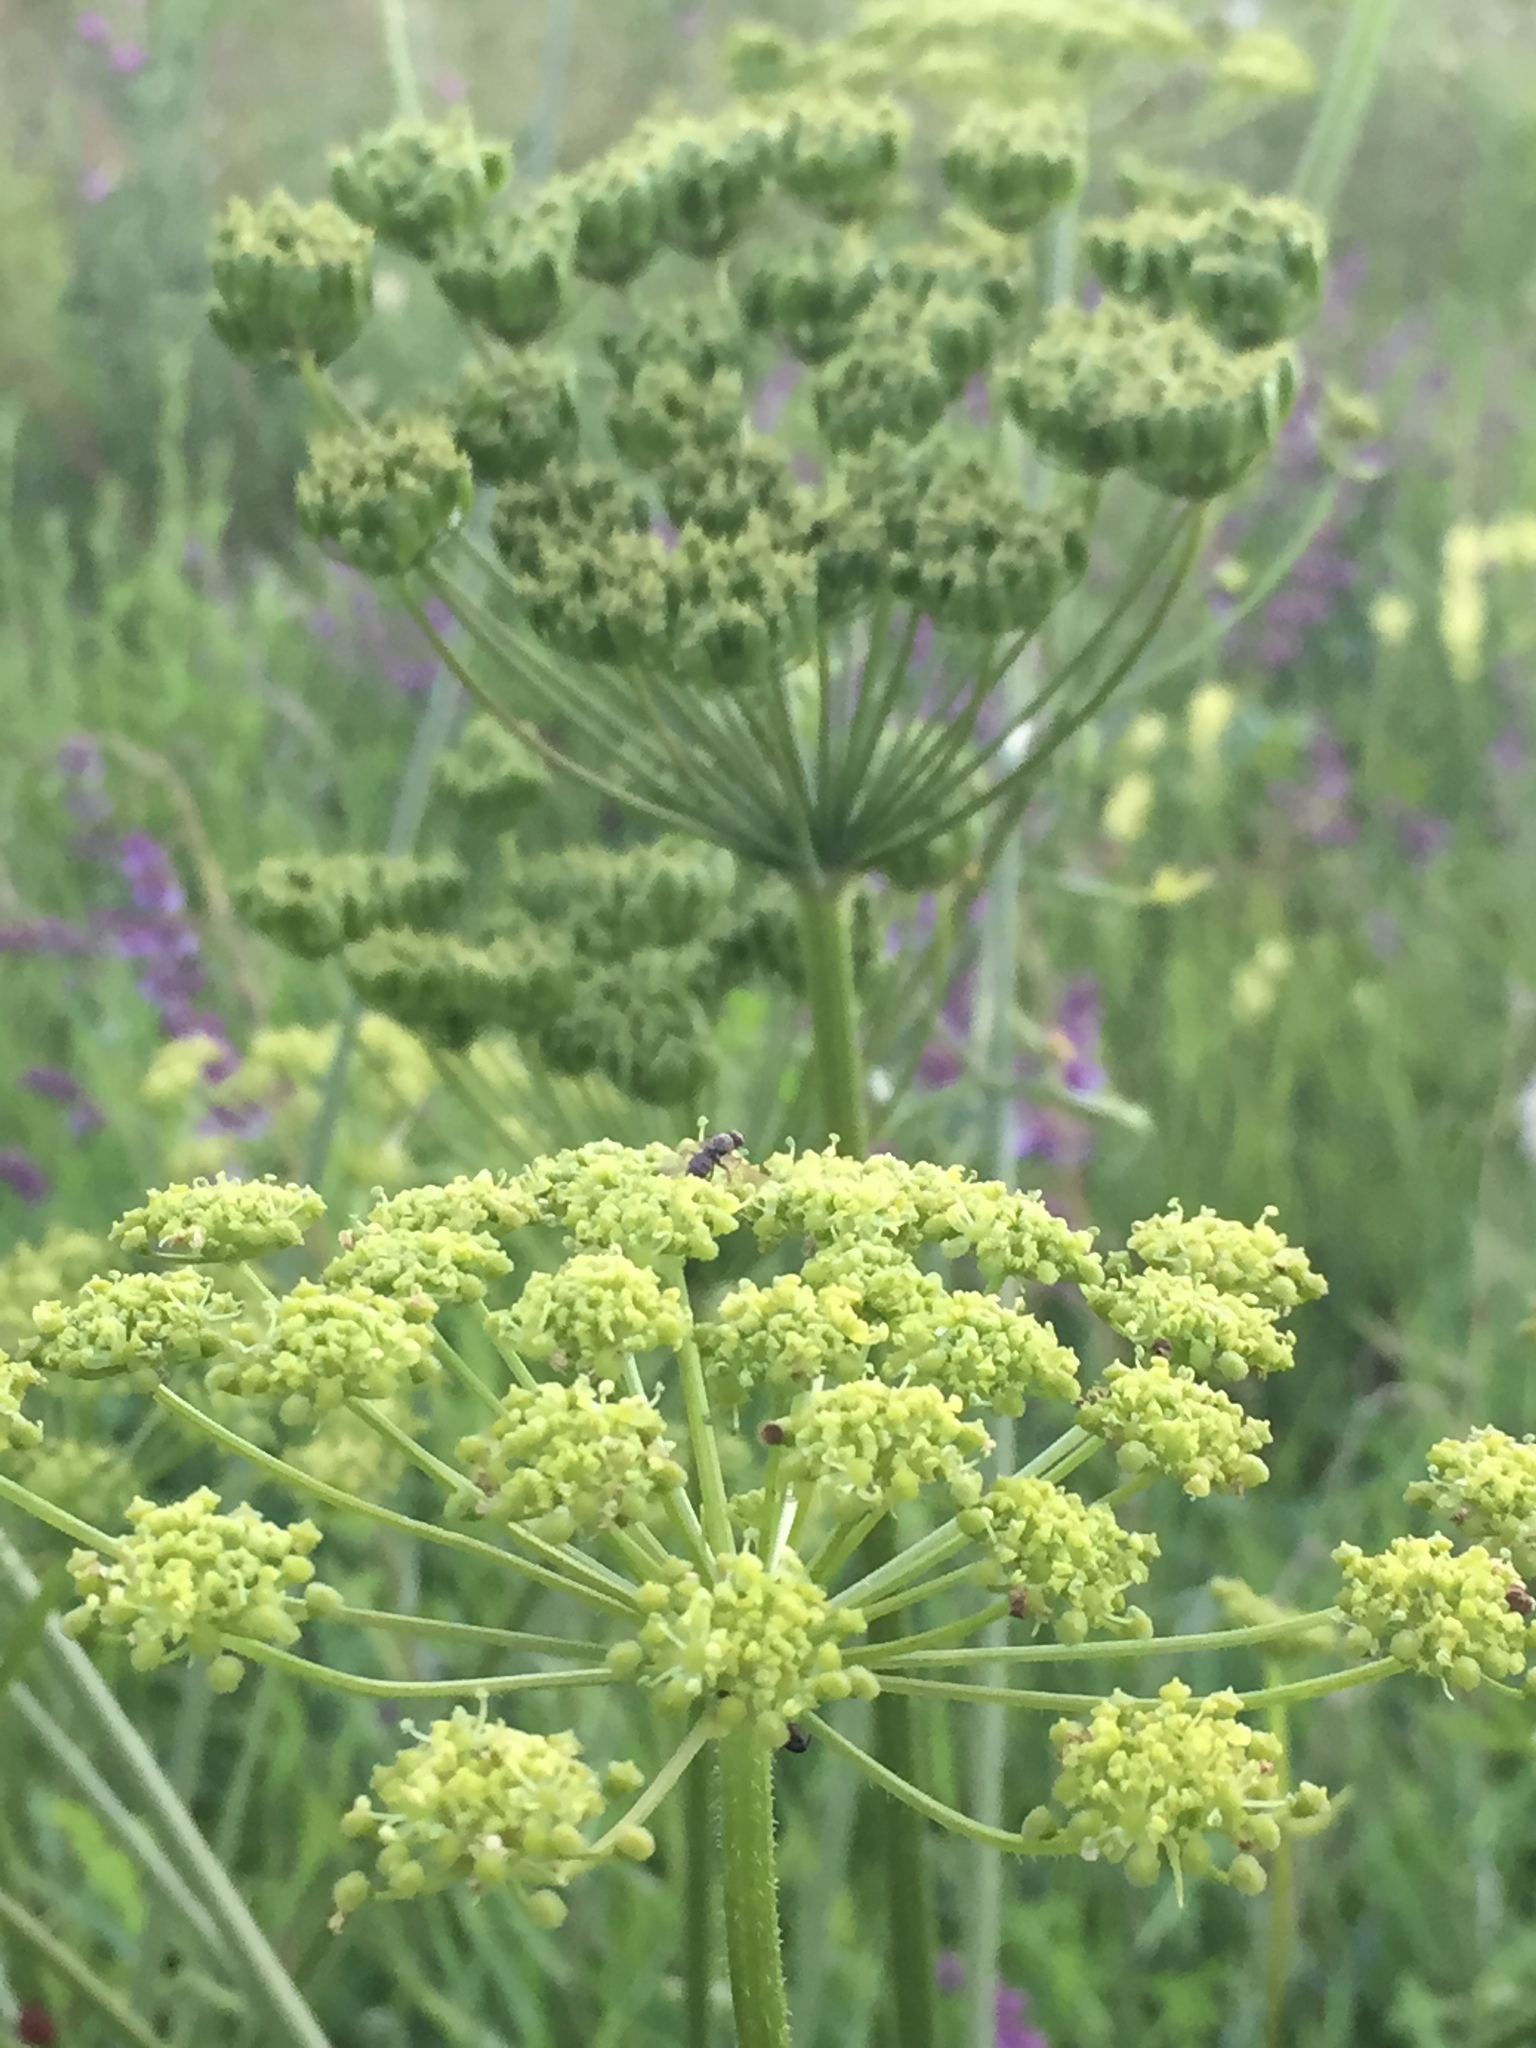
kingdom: Plantae
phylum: Tracheophyta
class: Magnoliopsida
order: Apiales
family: Apiaceae
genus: Heracleum
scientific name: Heracleum sphondylium
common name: Hogweed
